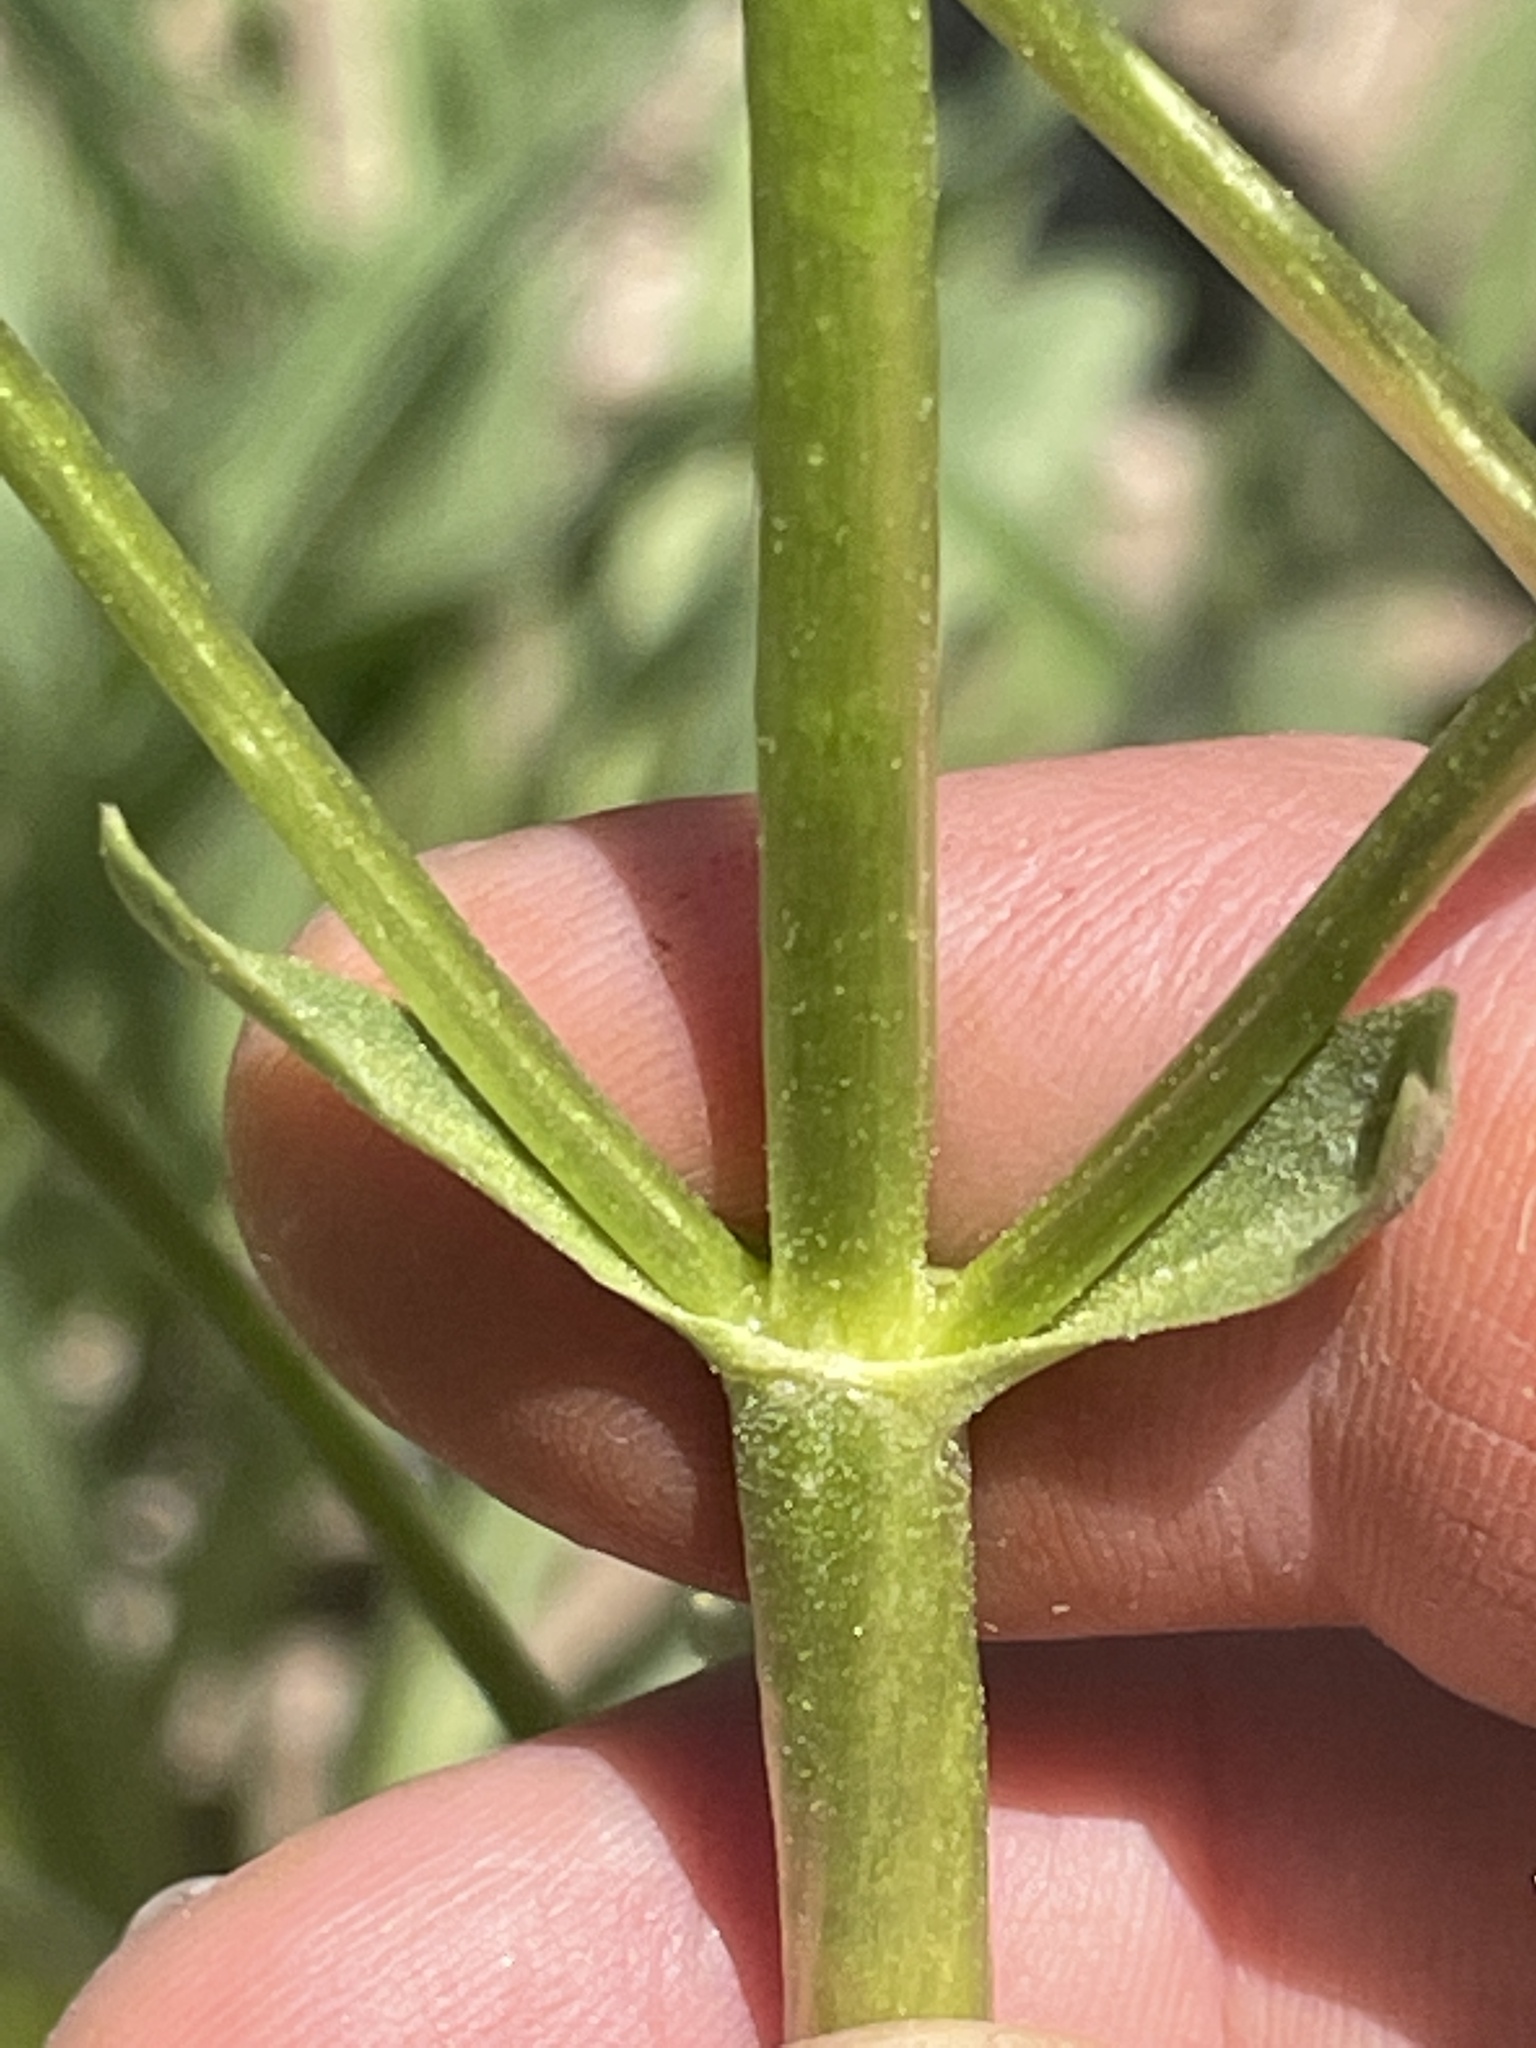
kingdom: Plantae
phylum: Tracheophyta
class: Magnoliopsida
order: Dipsacales
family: Caprifoliaceae
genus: Valeriana
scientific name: Valeriana edulis
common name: Taproot valerian
